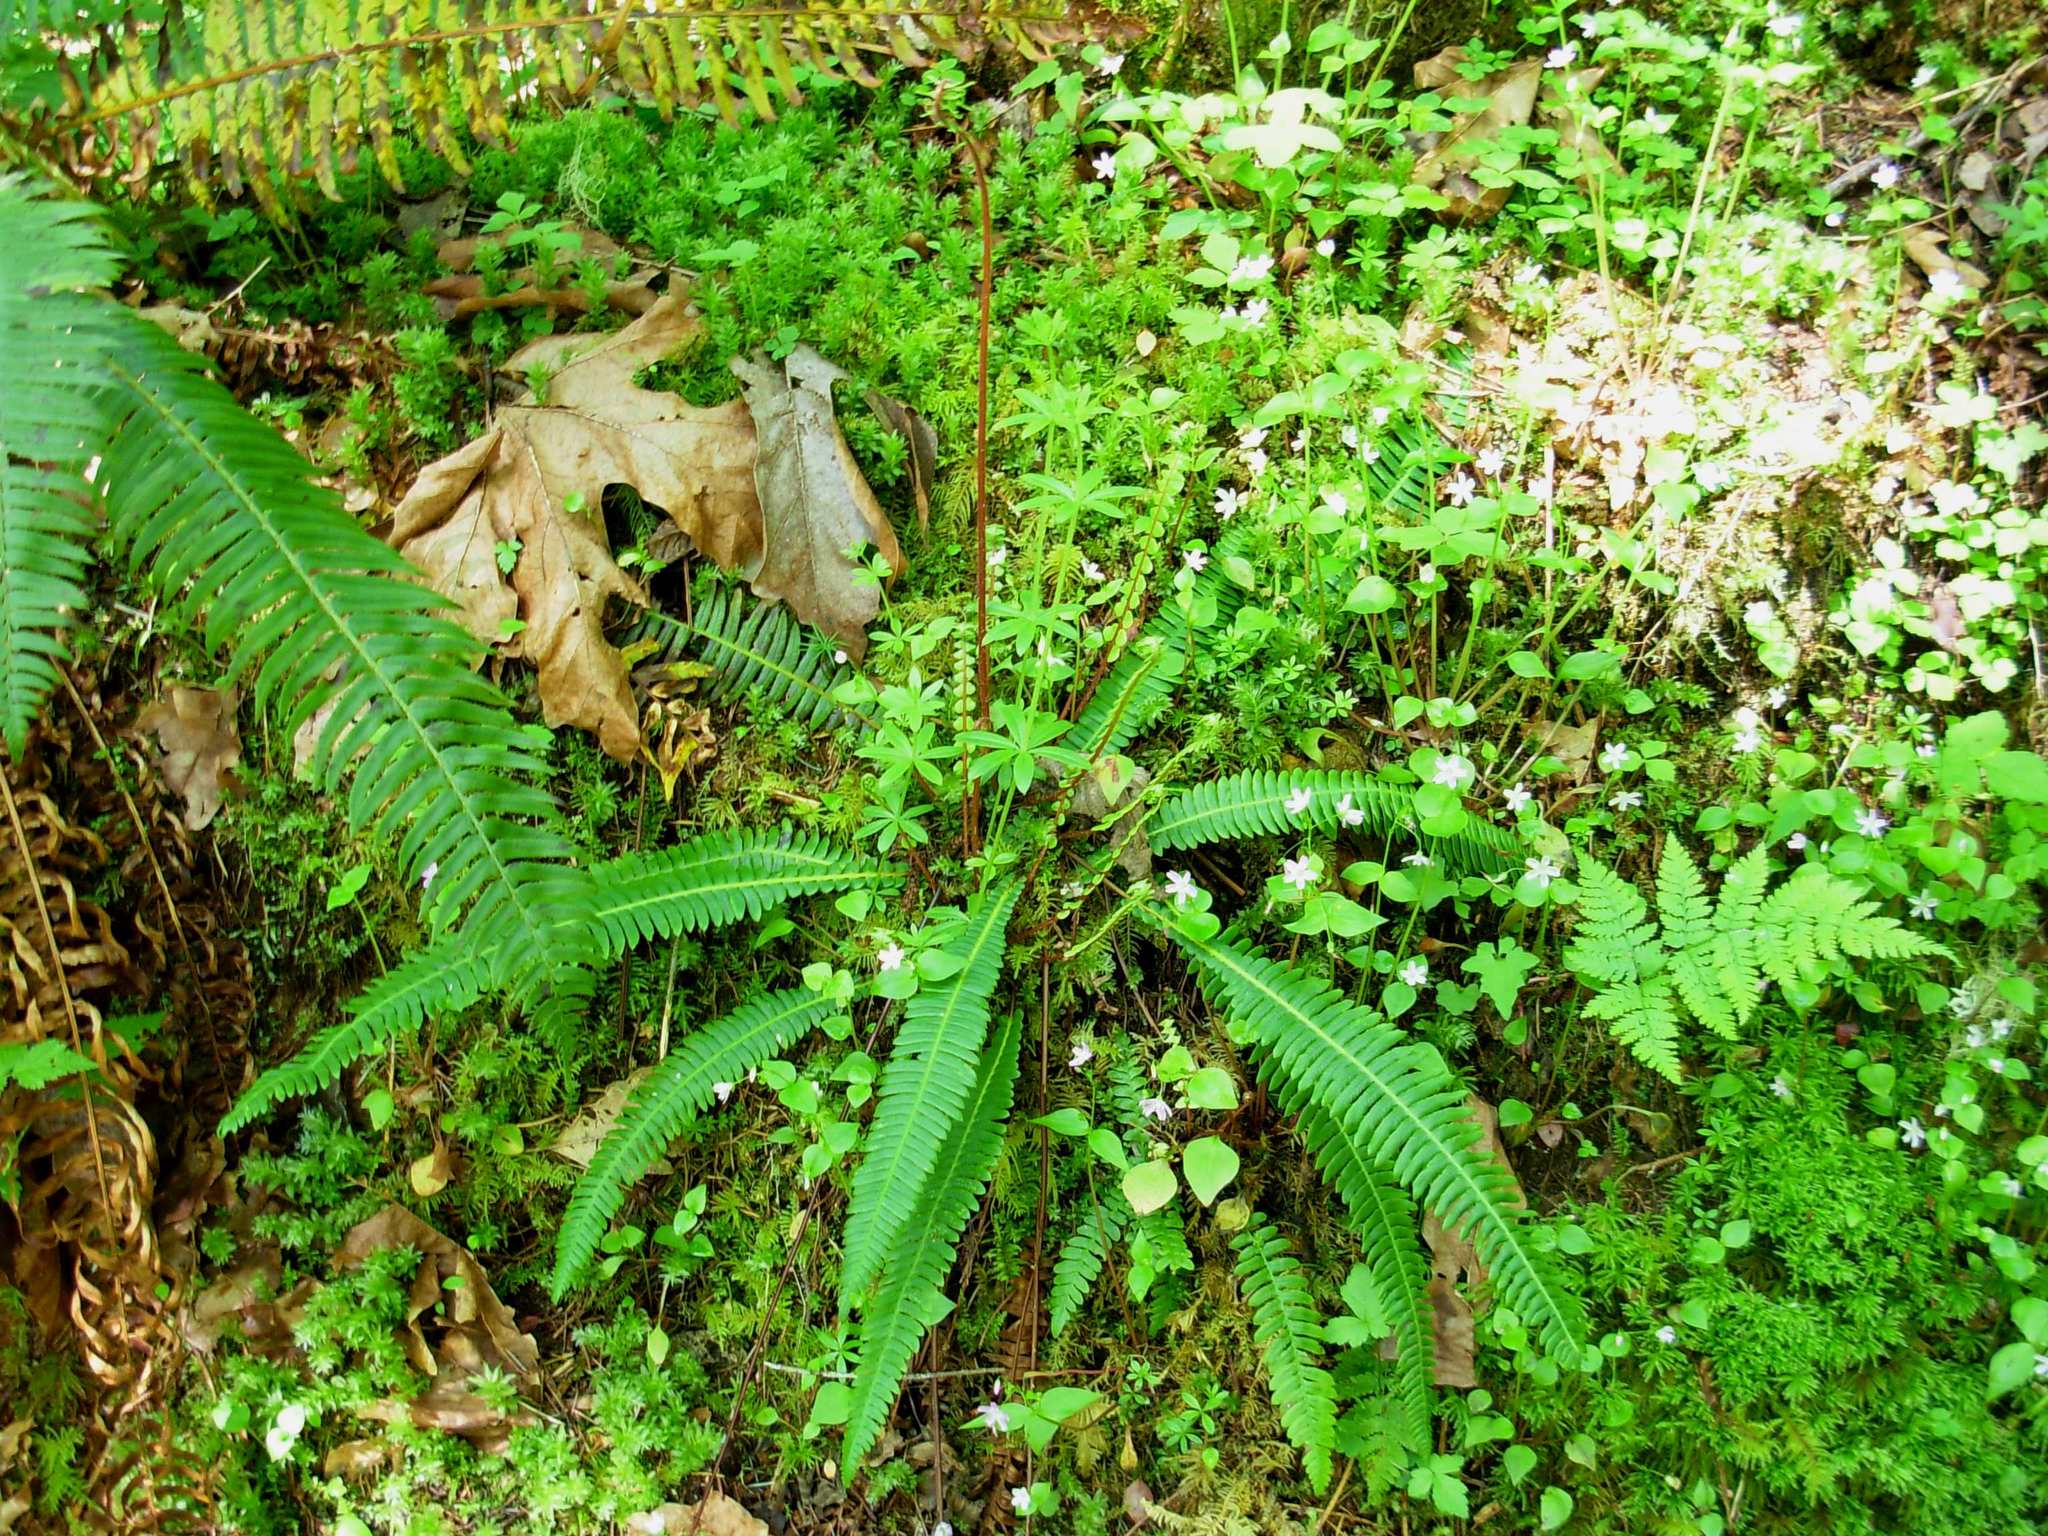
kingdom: Plantae
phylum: Tracheophyta
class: Polypodiopsida
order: Polypodiales
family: Blechnaceae
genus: Struthiopteris
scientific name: Struthiopteris spicant
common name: Deer fern
